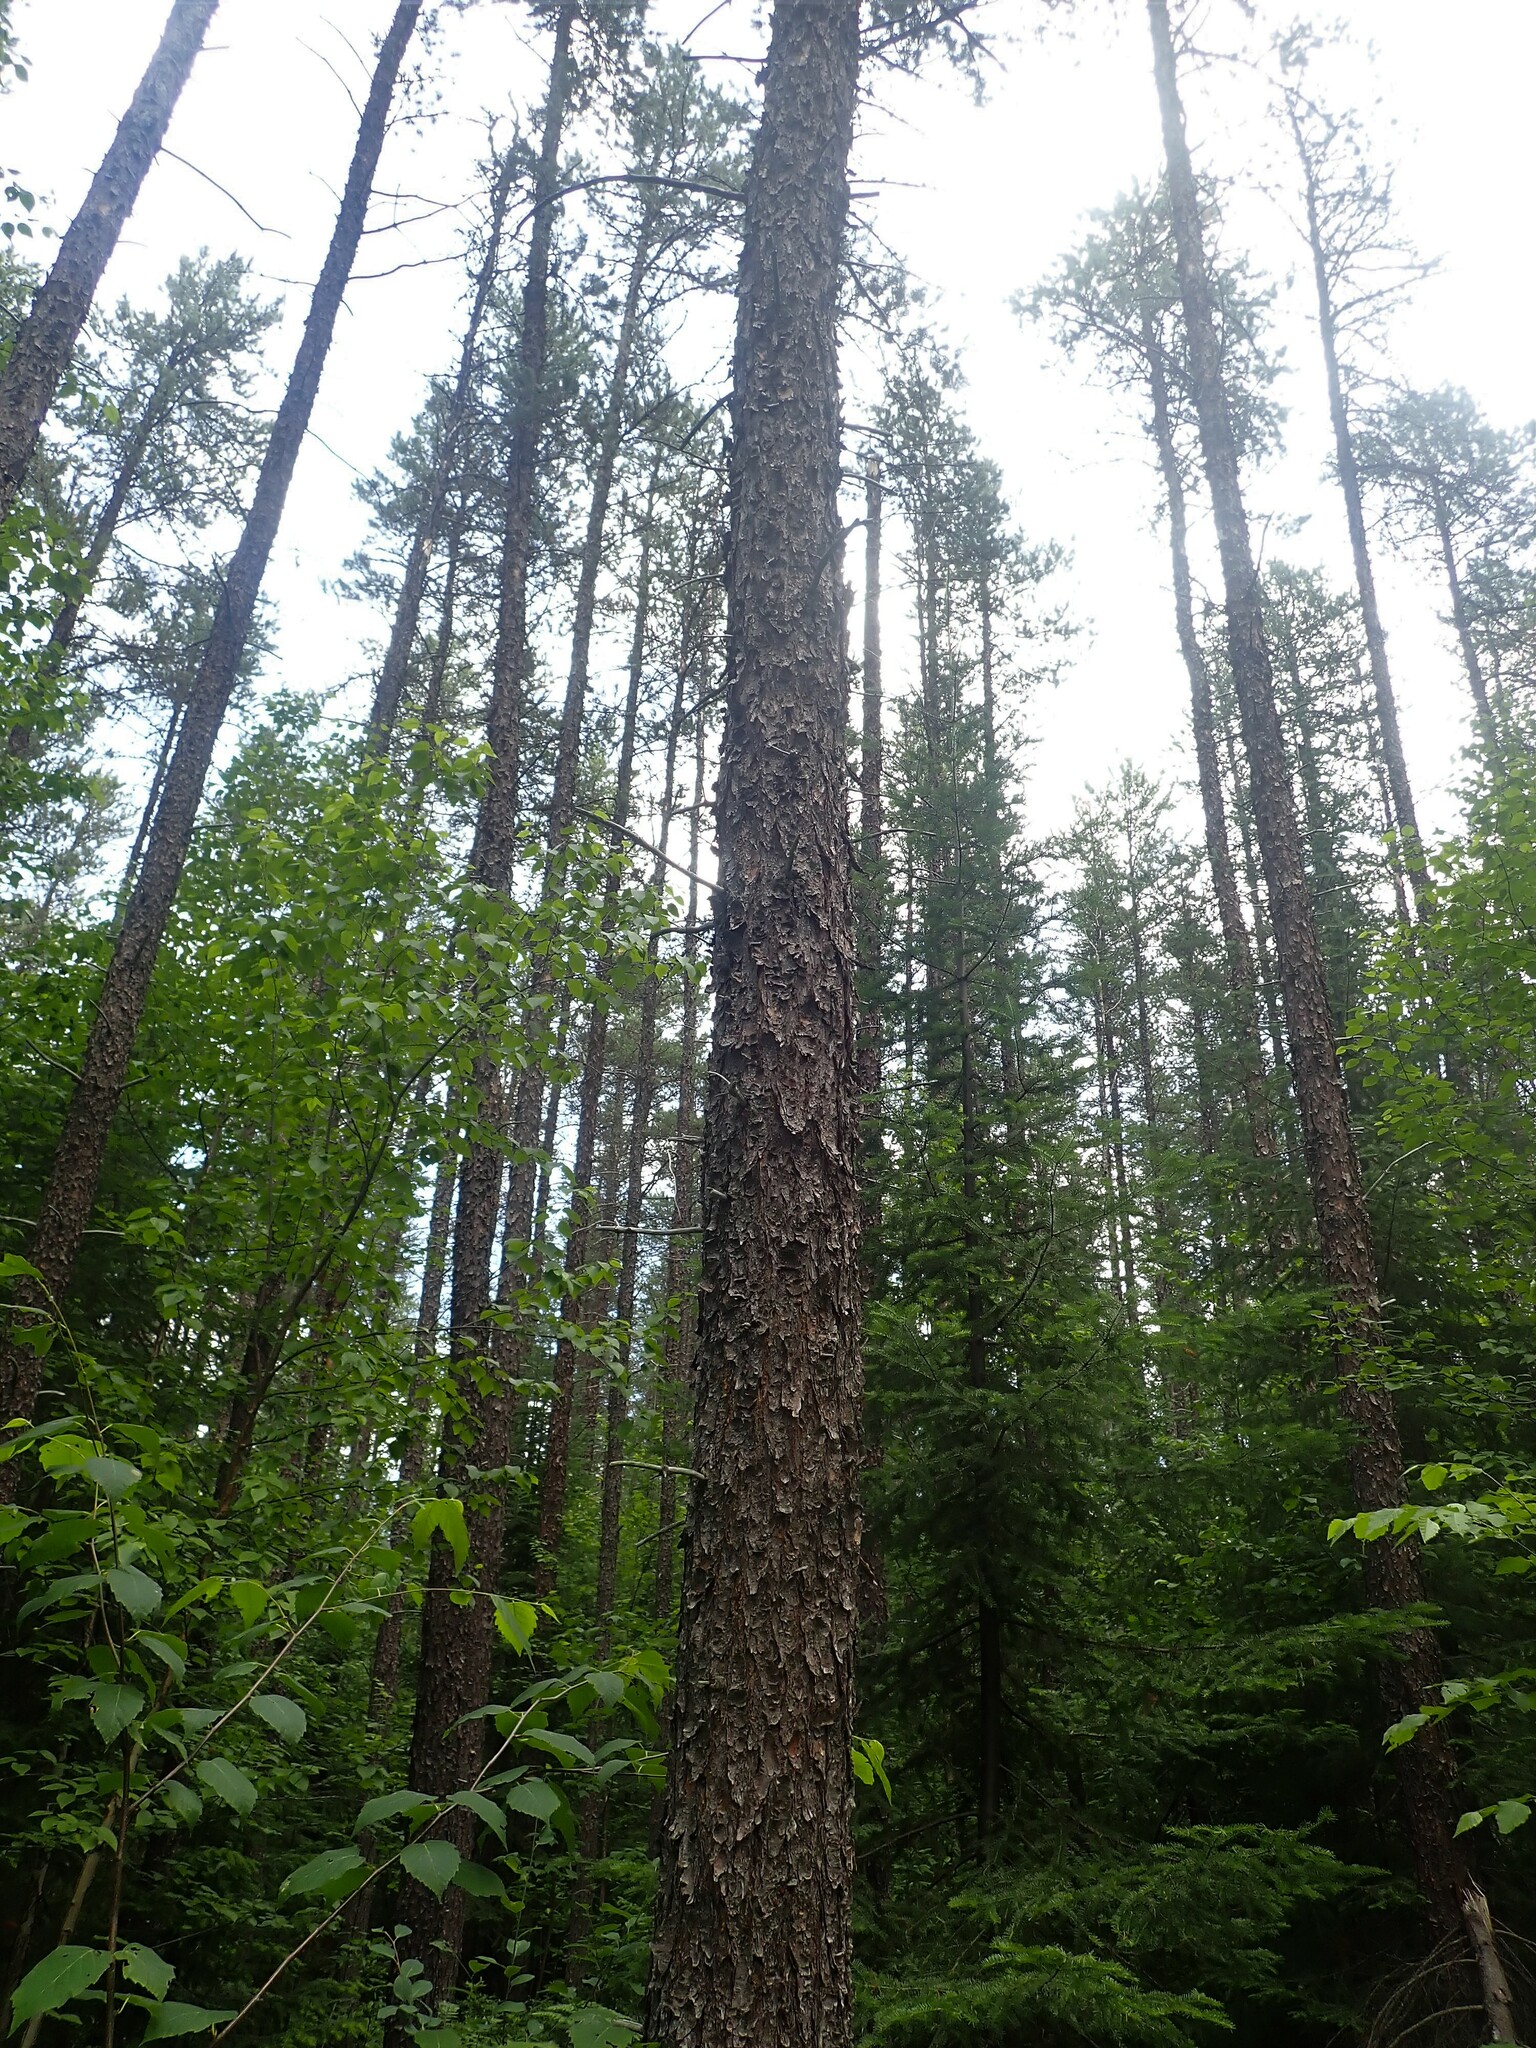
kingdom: Plantae
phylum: Tracheophyta
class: Pinopsida
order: Pinales
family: Pinaceae
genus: Pinus
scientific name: Pinus banksiana
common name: Jack pine
